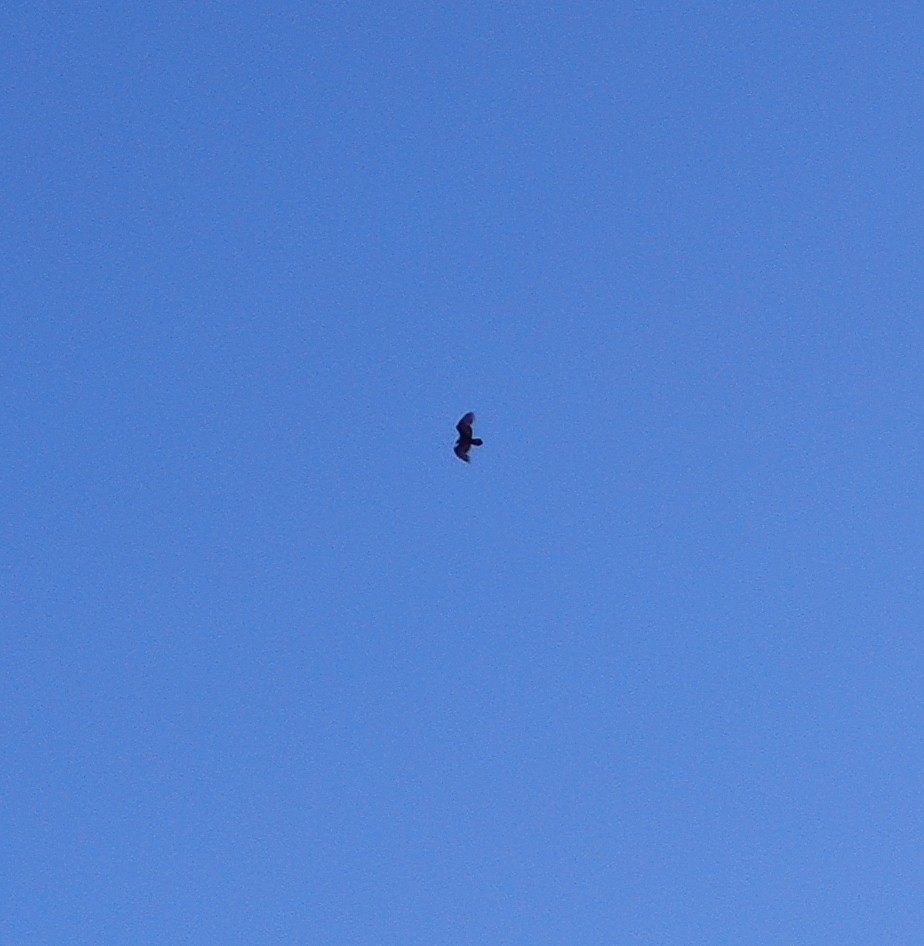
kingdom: Animalia
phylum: Chordata
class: Aves
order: Accipitriformes
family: Cathartidae
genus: Cathartes
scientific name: Cathartes aura
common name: Turkey vulture
